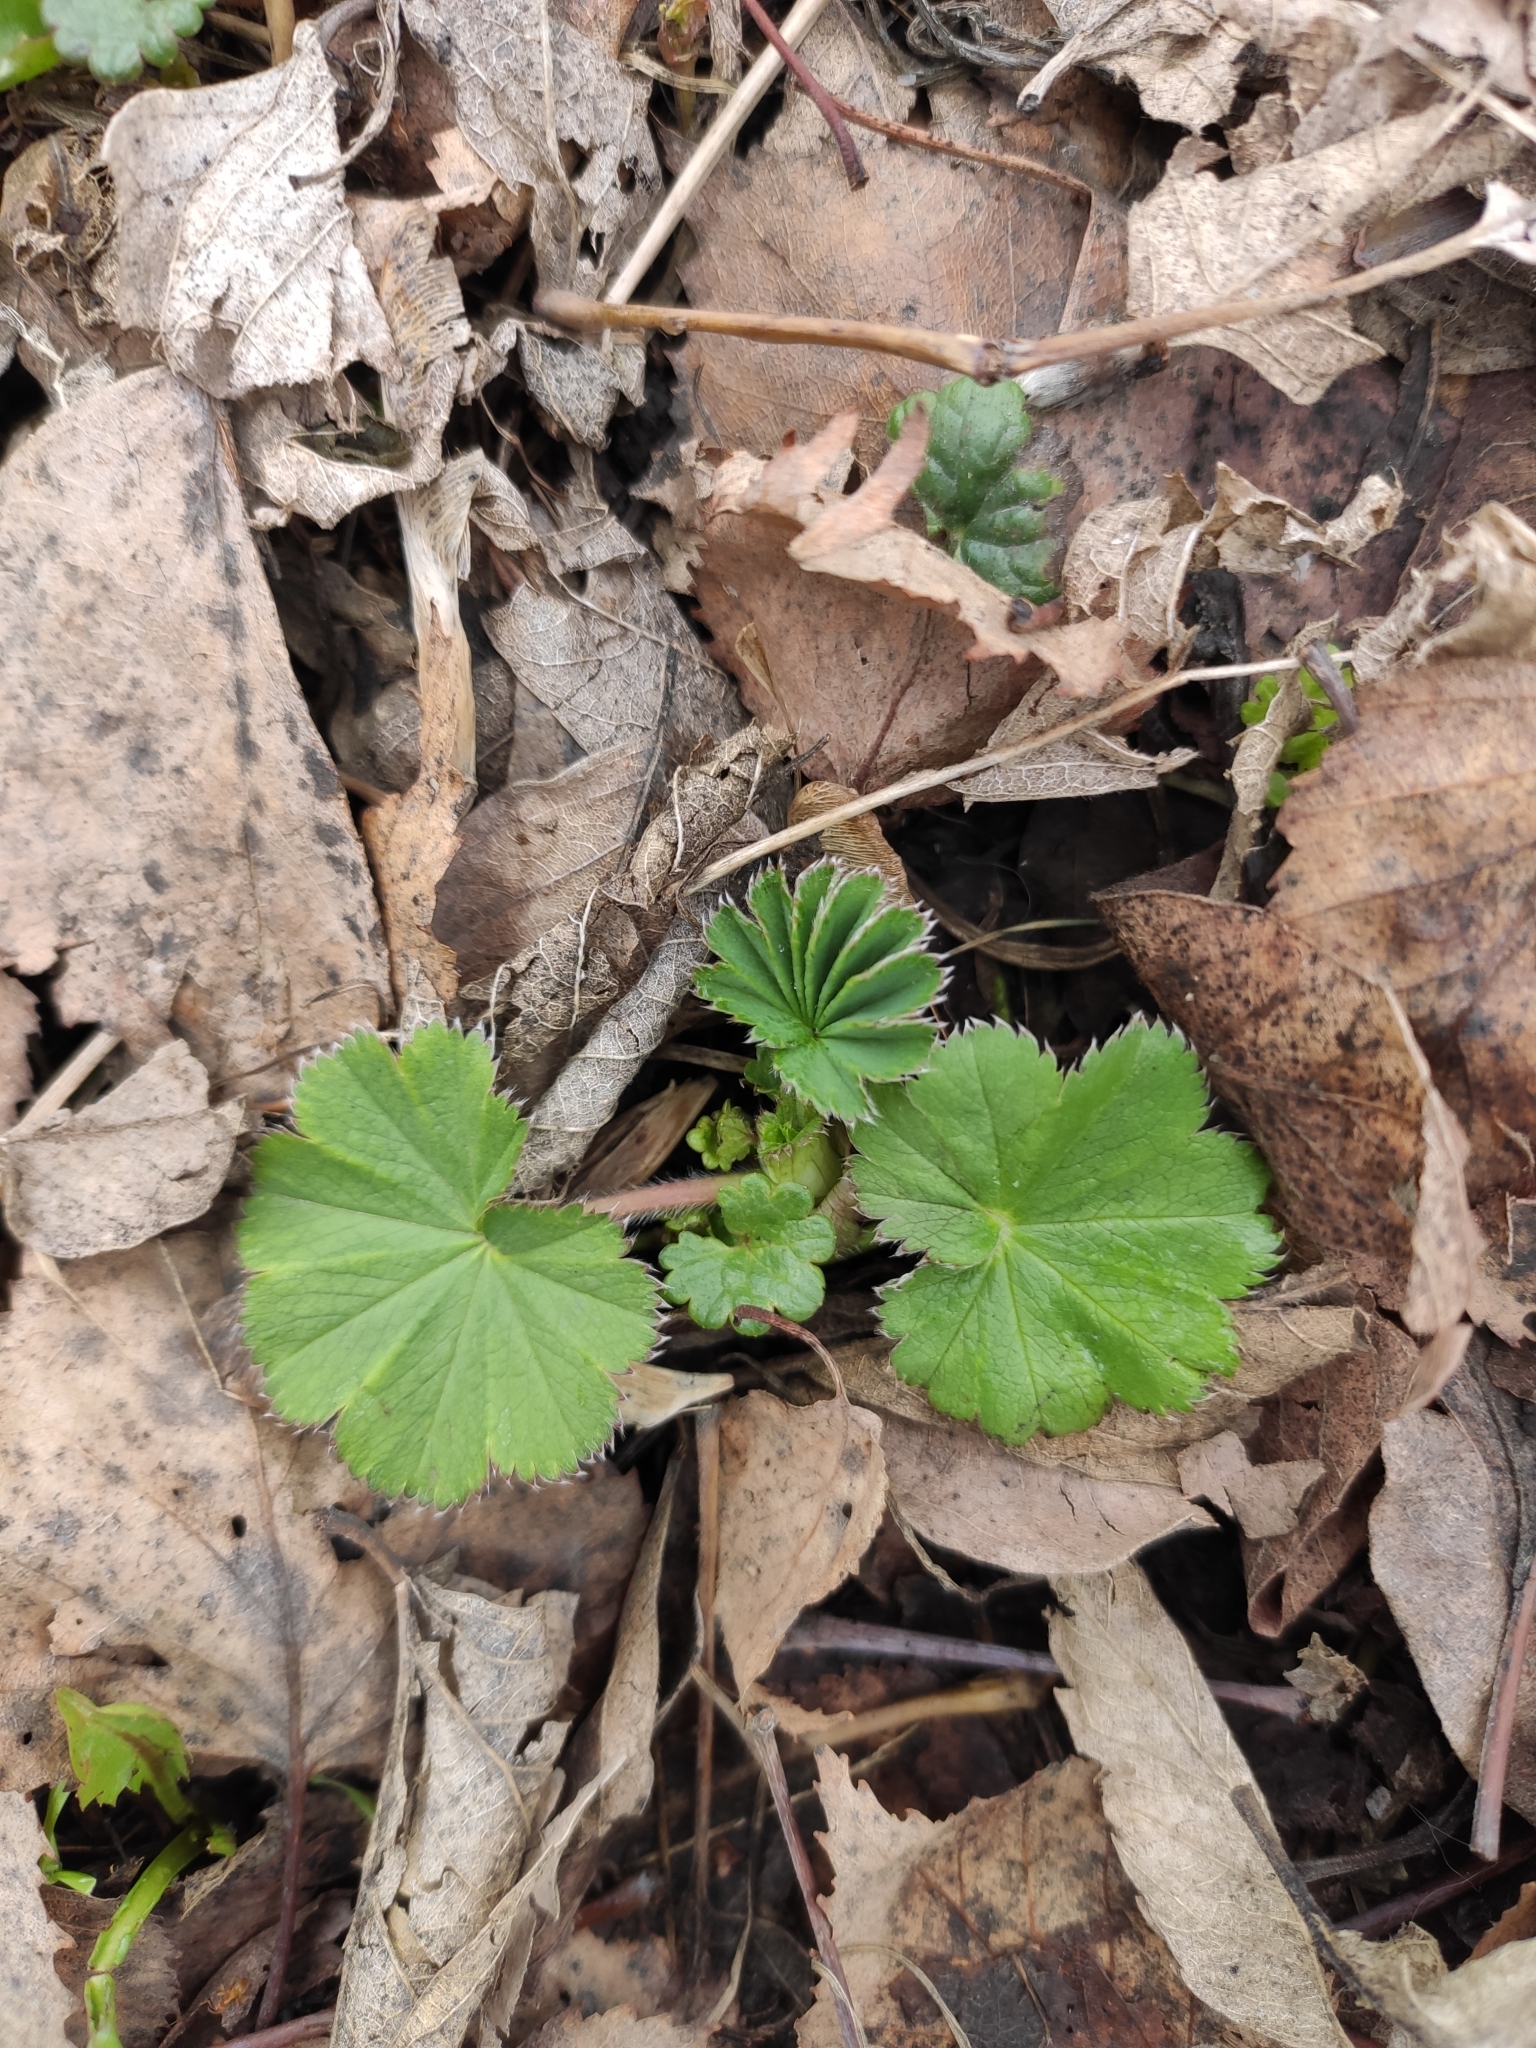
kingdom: Plantae
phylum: Tracheophyta
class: Magnoliopsida
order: Rosales
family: Rosaceae
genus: Alchemilla
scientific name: Alchemilla
